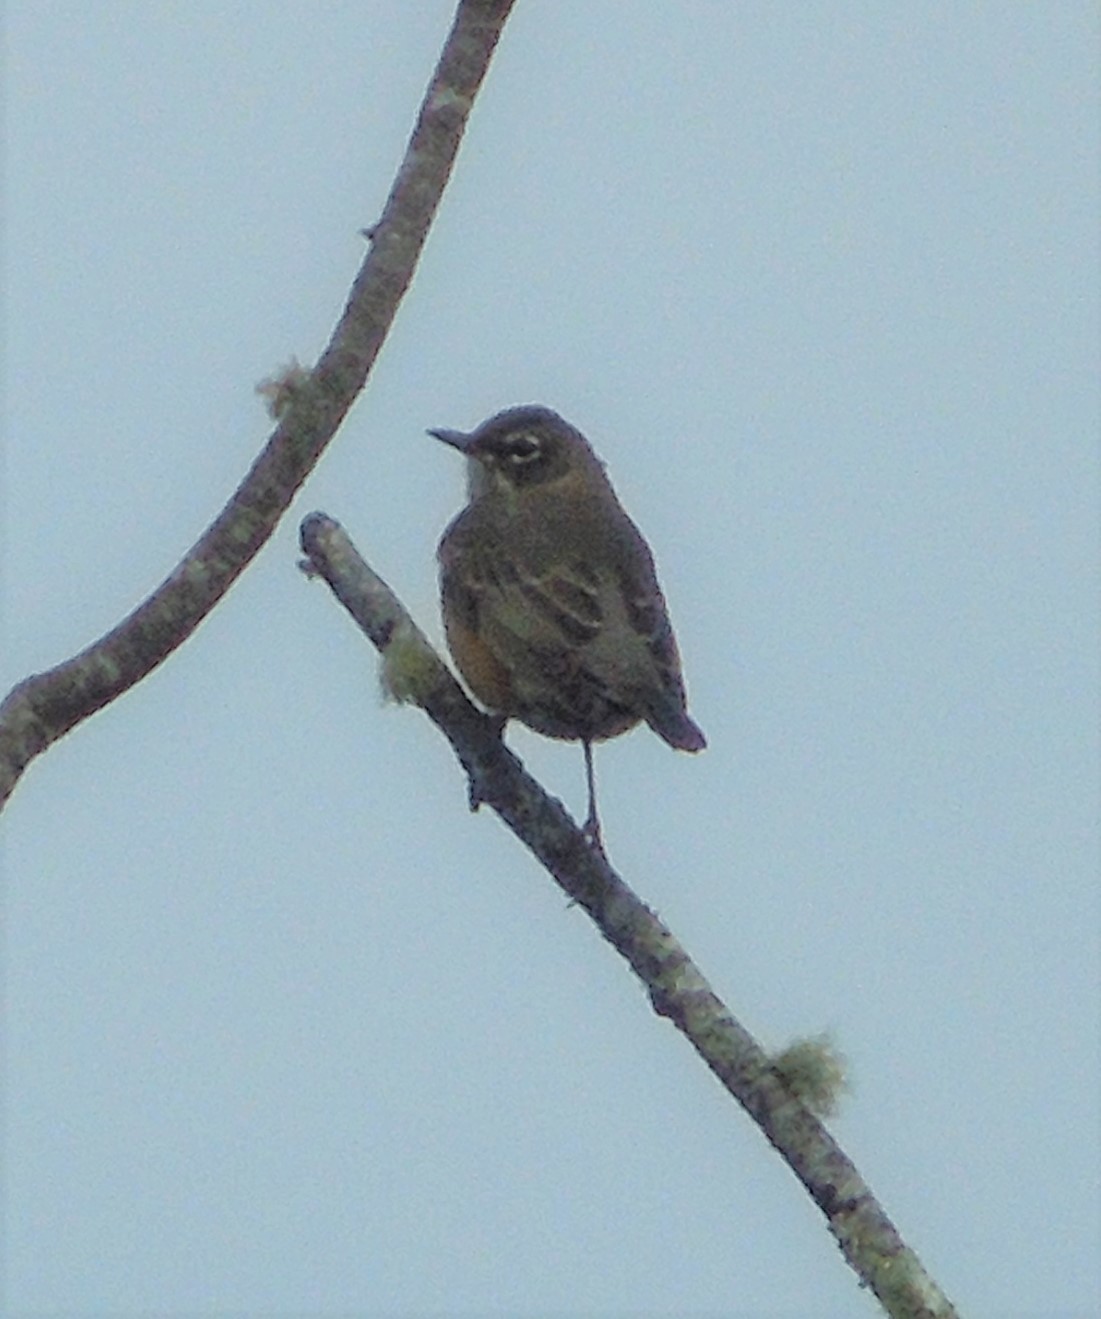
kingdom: Animalia
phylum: Chordata
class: Aves
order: Passeriformes
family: Turdidae
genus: Turdus
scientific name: Turdus migratorius
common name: American robin
